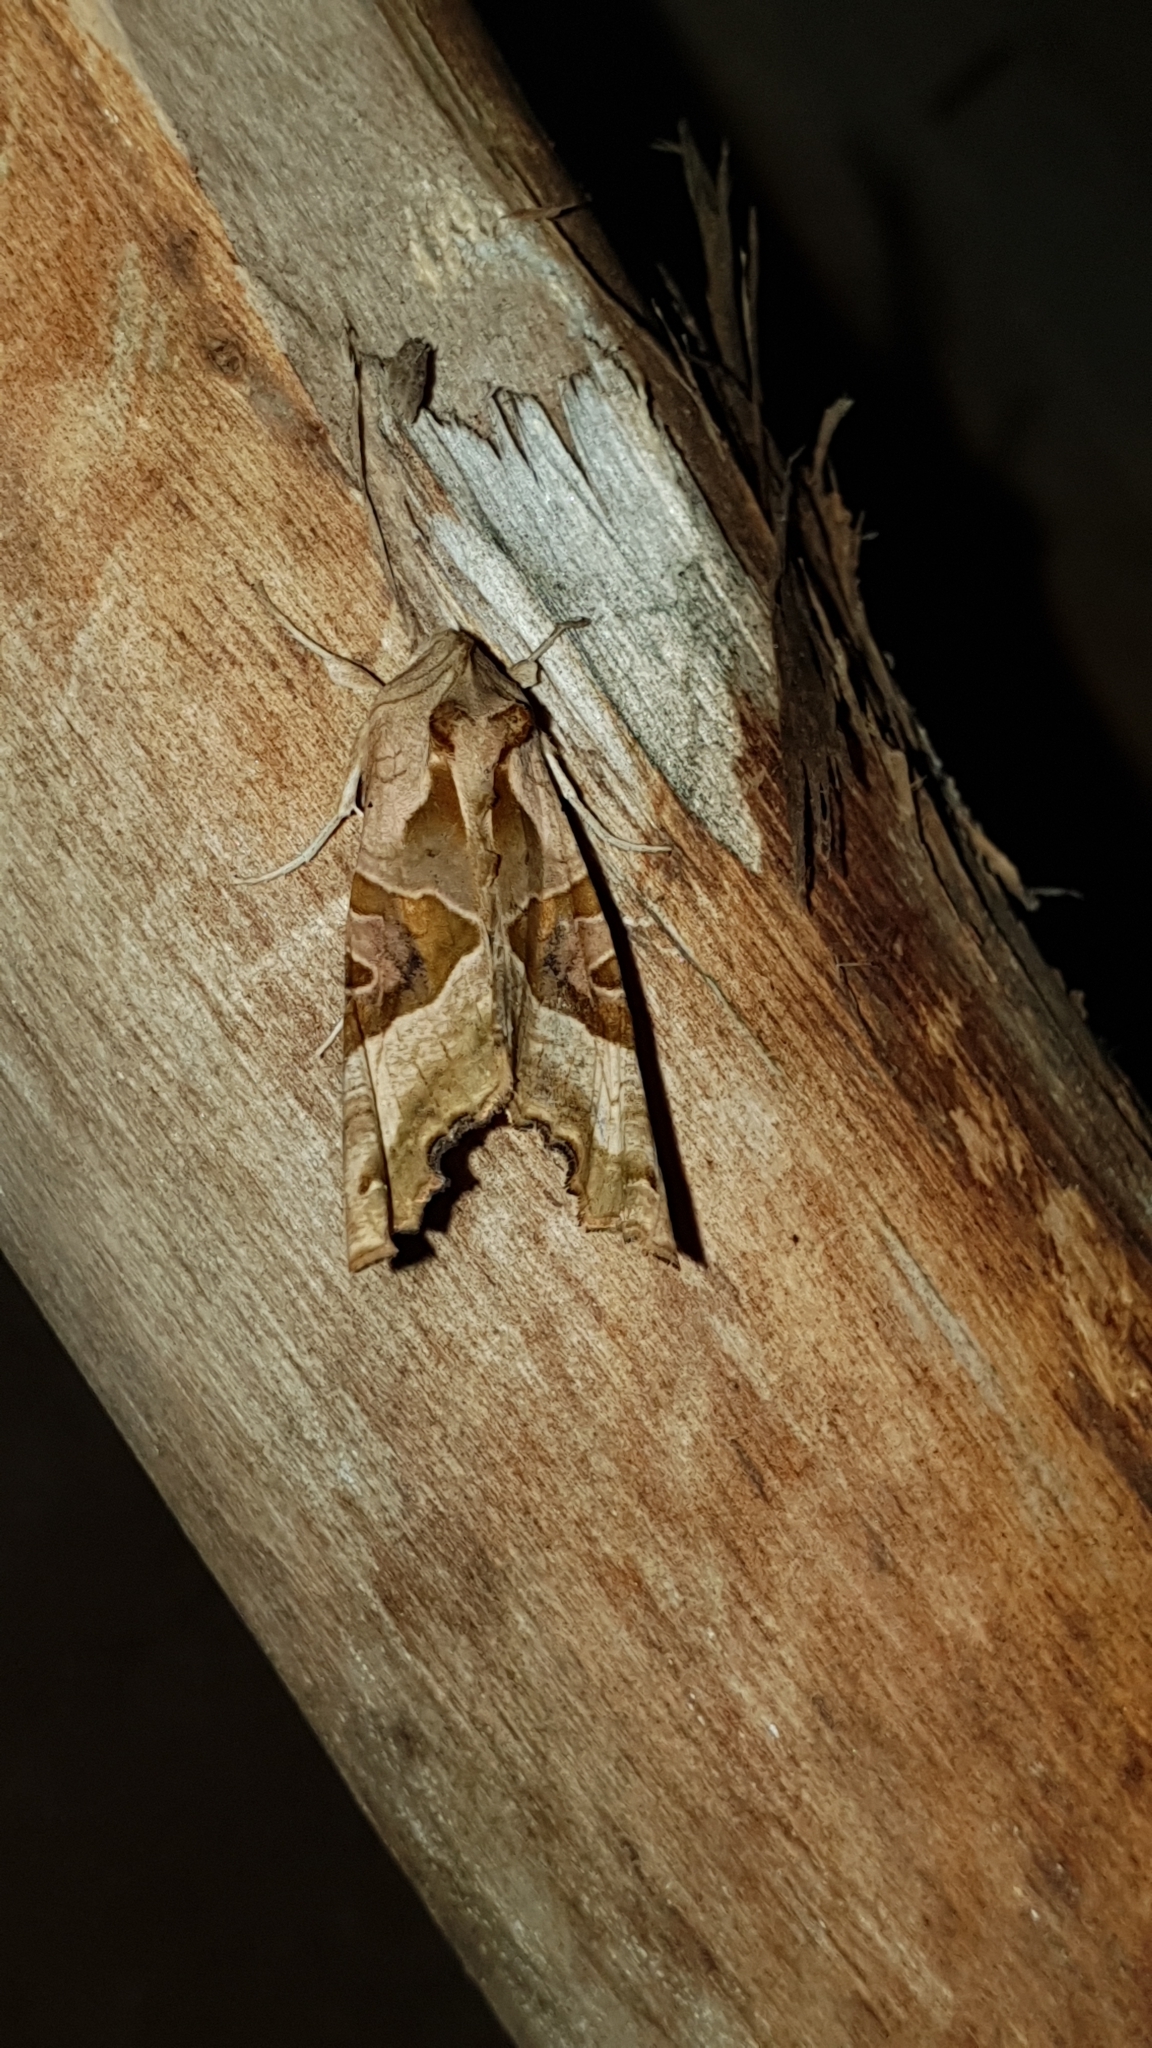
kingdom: Animalia
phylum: Arthropoda
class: Insecta
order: Lepidoptera
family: Noctuidae
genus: Phlogophora
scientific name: Phlogophora meticulosa
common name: Angle shades
